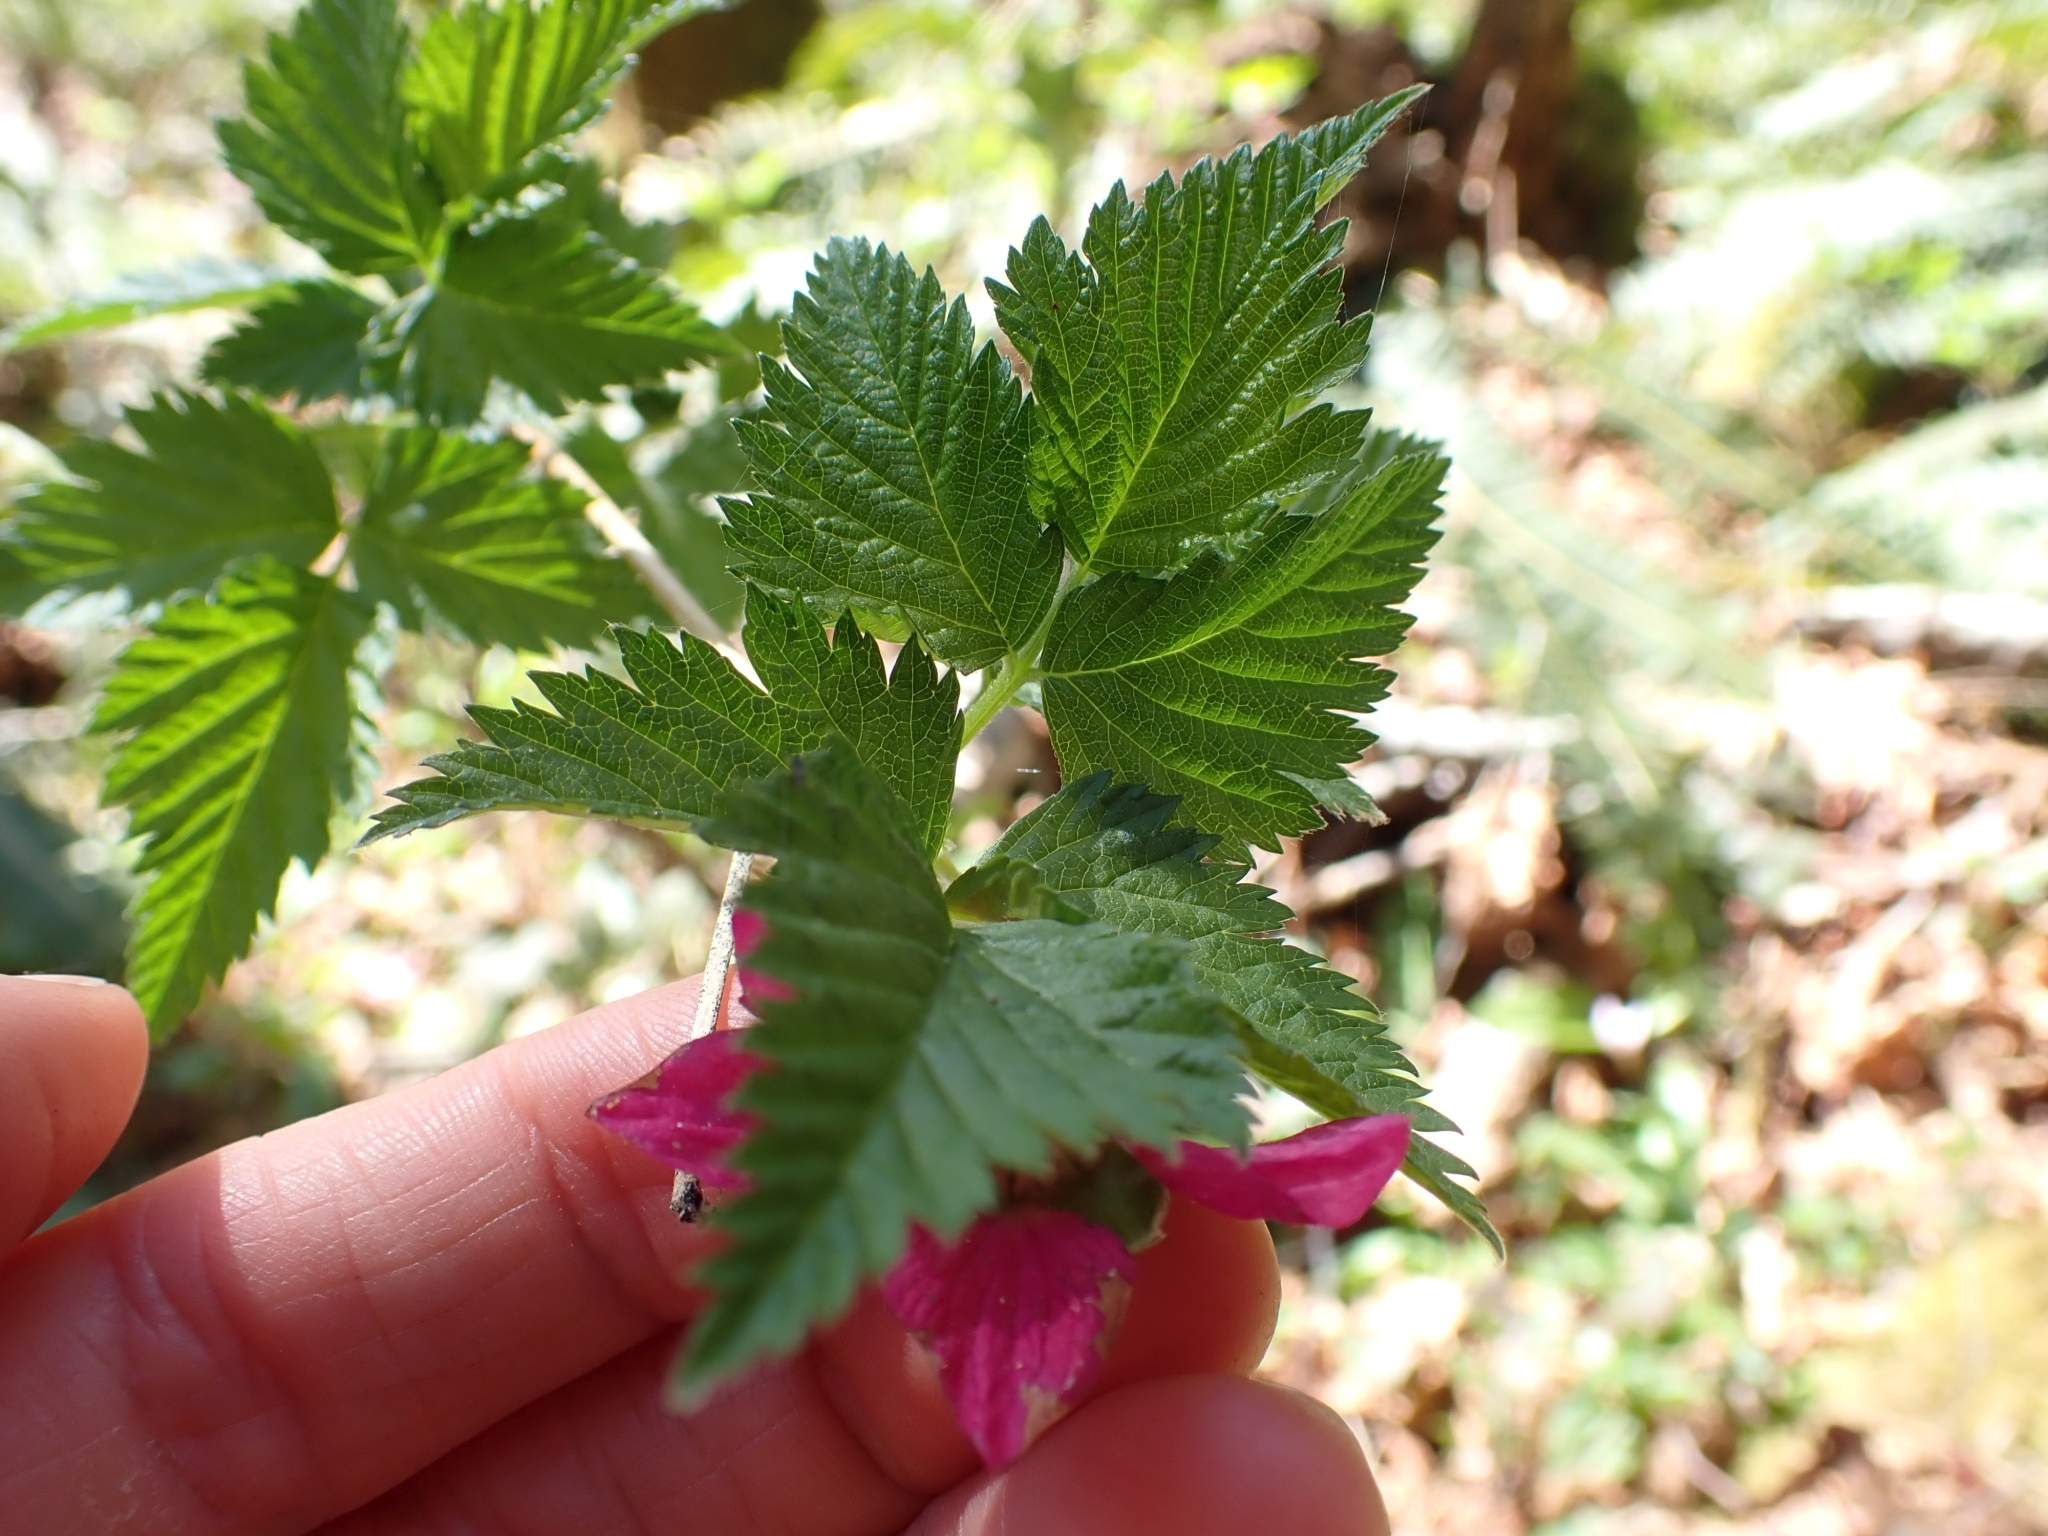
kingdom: Plantae
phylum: Tracheophyta
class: Magnoliopsida
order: Rosales
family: Rosaceae
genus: Rubus
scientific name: Rubus spectabilis
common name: Salmonberry
